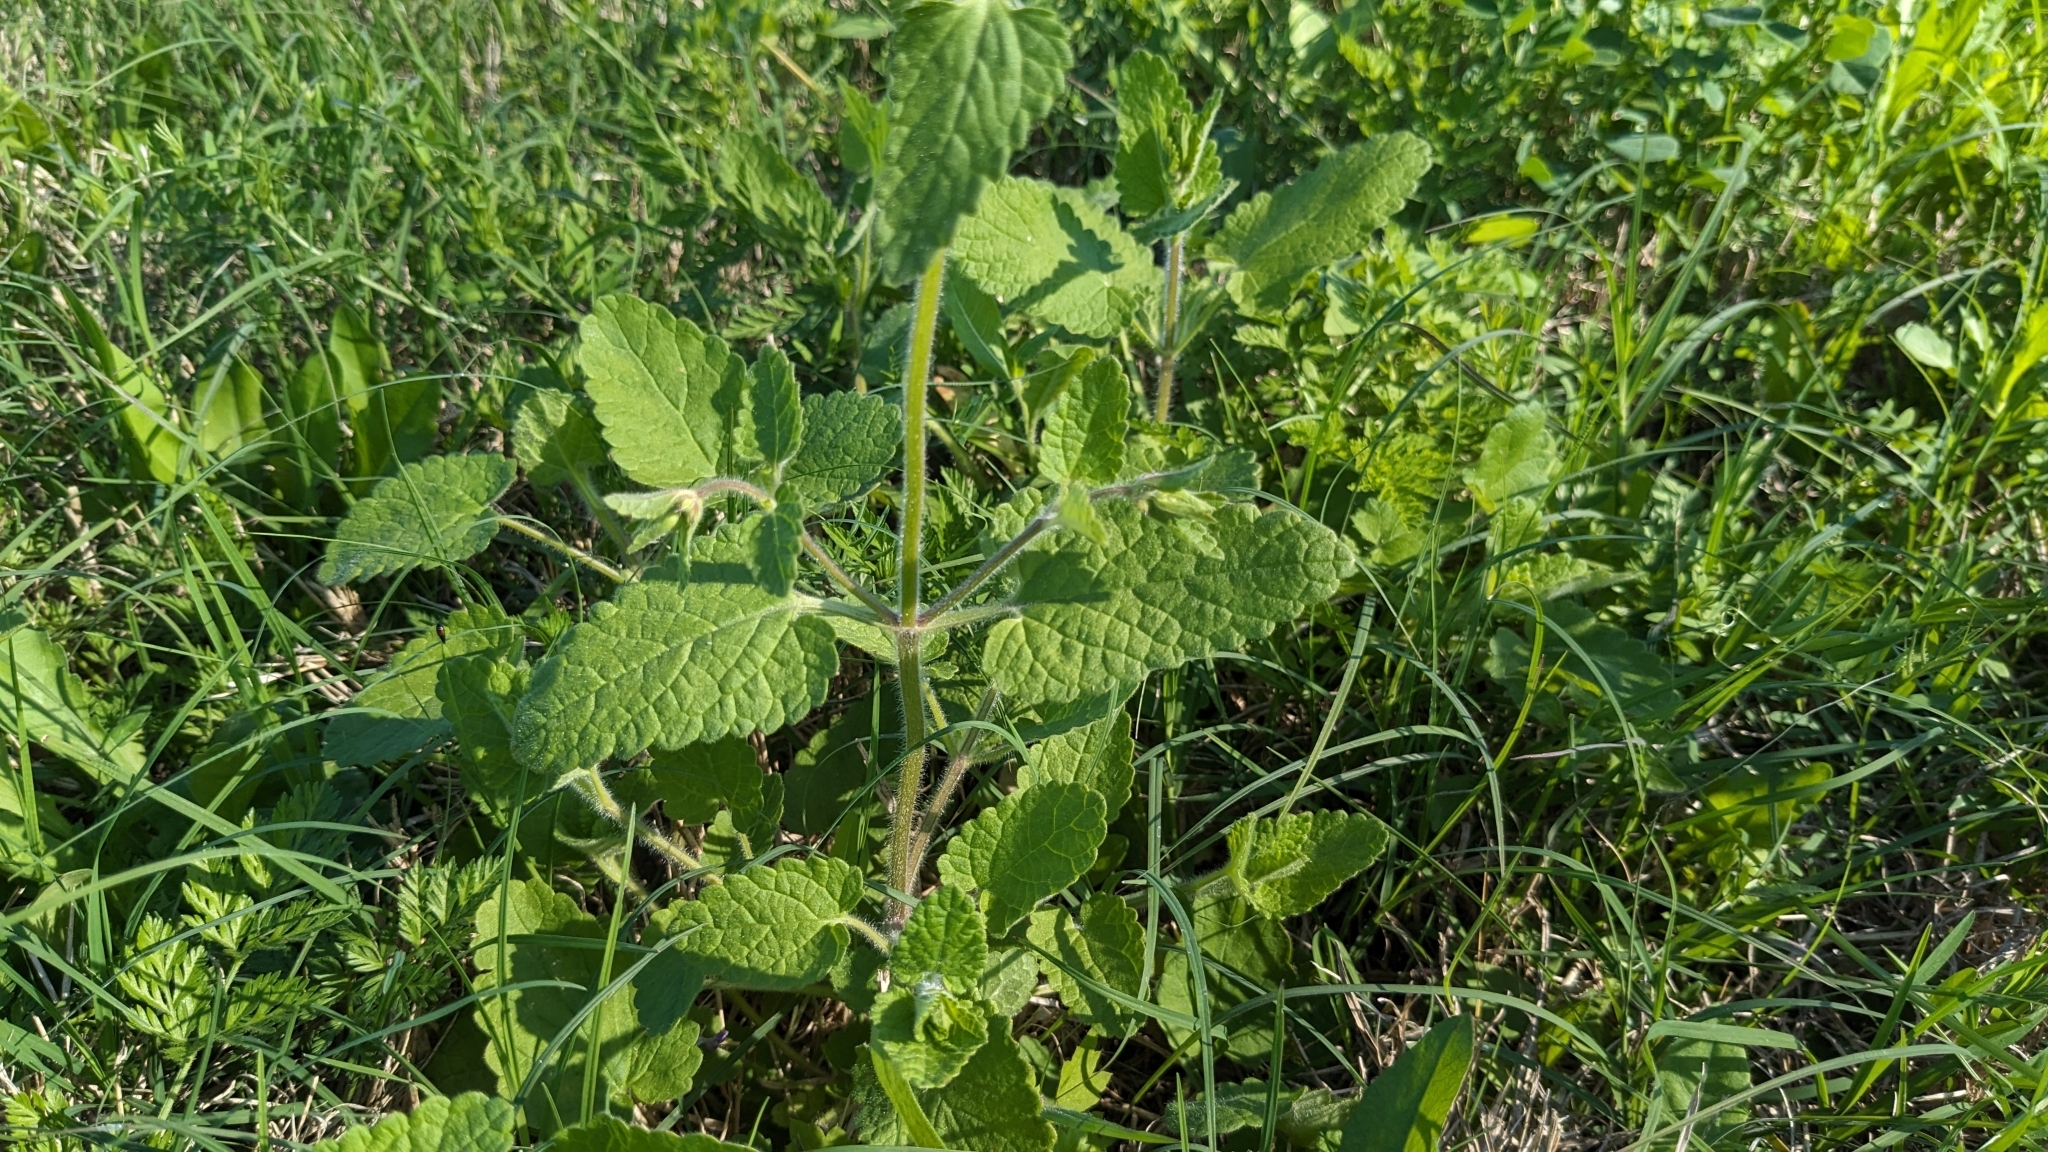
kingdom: Plantae
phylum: Tracheophyta
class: Magnoliopsida
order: Lamiales
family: Lamiaceae
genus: Stachys
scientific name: Stachys drummondii
